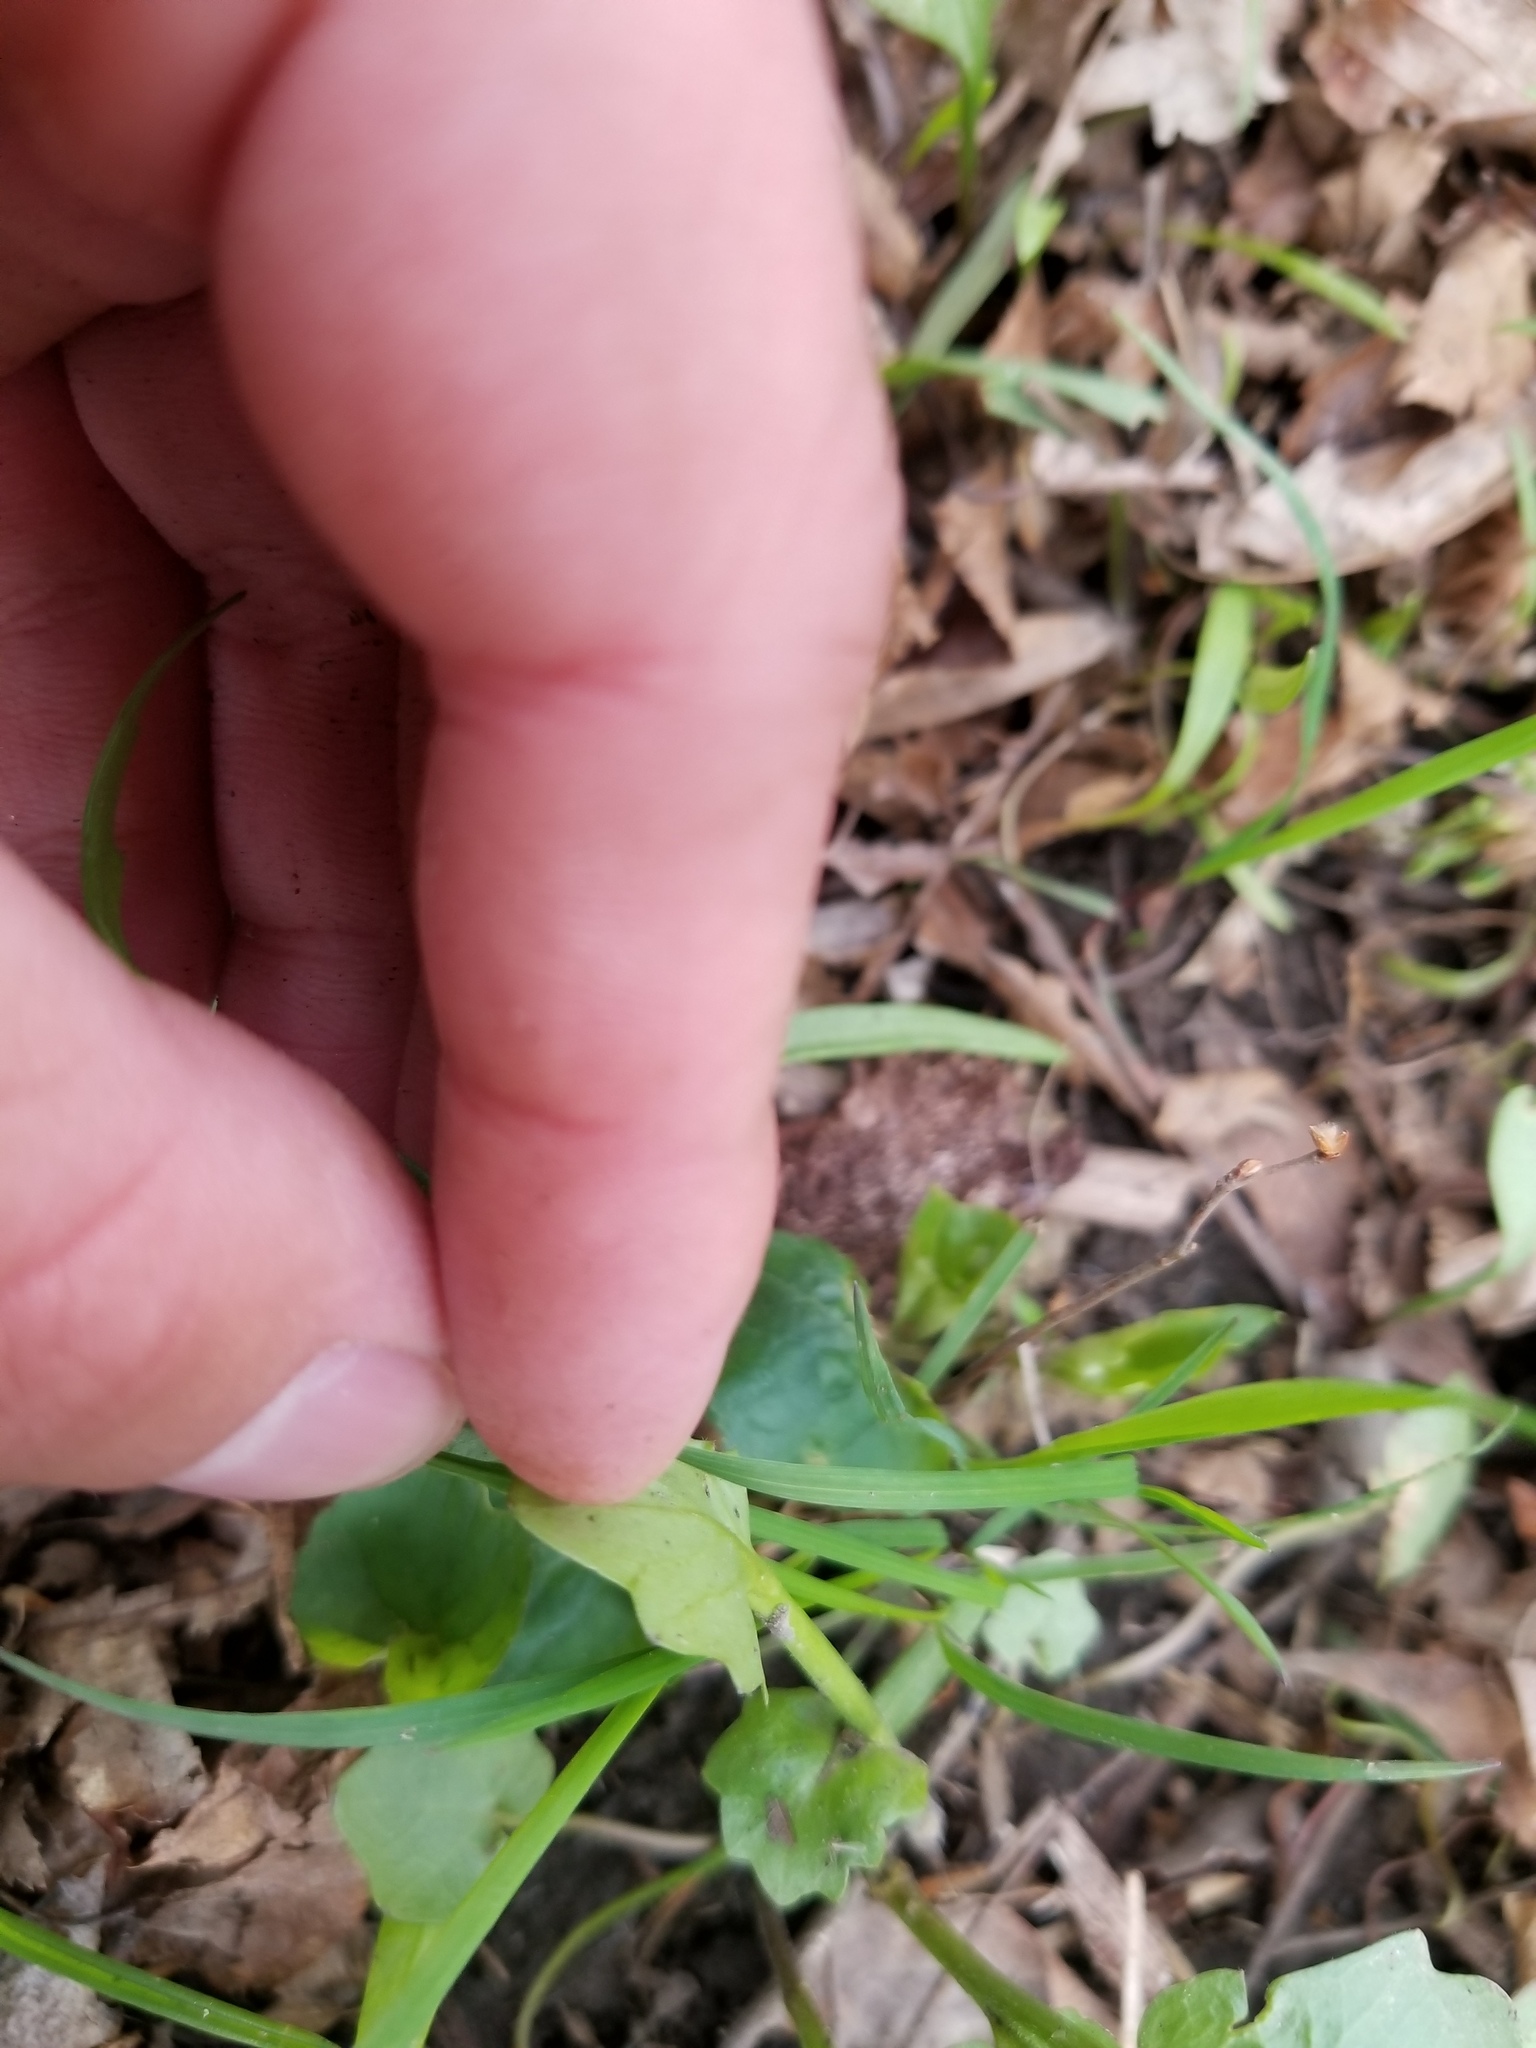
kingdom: Plantae
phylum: Tracheophyta
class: Magnoliopsida
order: Brassicales
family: Brassicaceae
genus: Cardamine
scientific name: Cardamine bulbosa
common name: Spring cress
